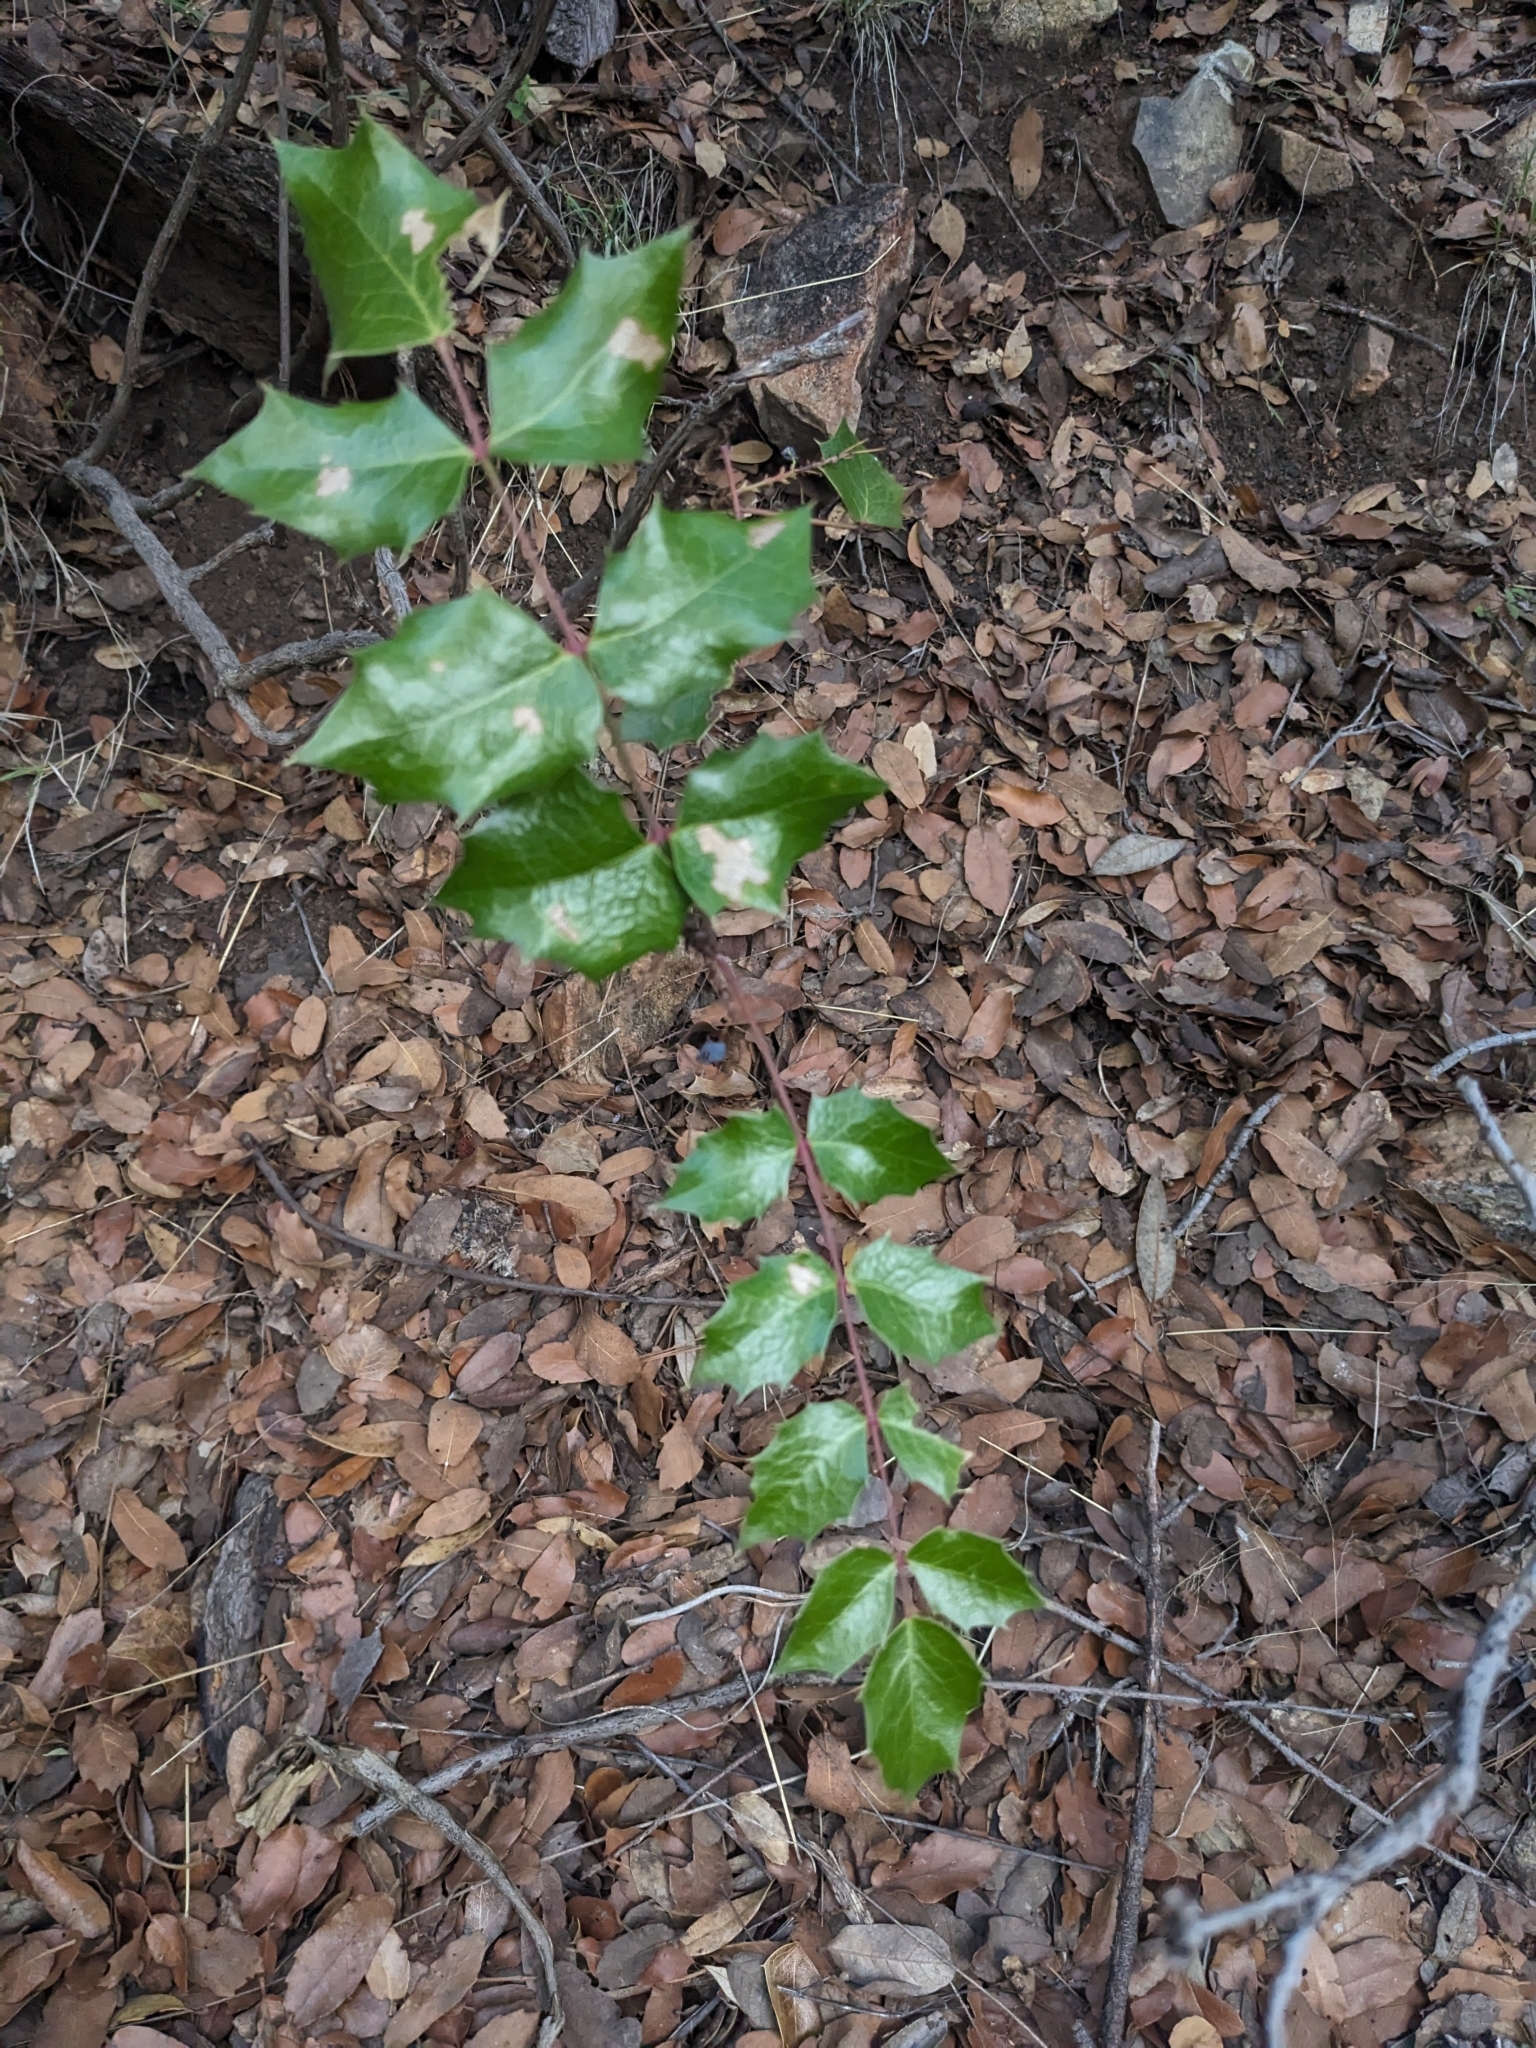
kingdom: Plantae
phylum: Tracheophyta
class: Magnoliopsida
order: Ranunculales
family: Berberidaceae
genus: Mahonia
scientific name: Mahonia wilcoxii
